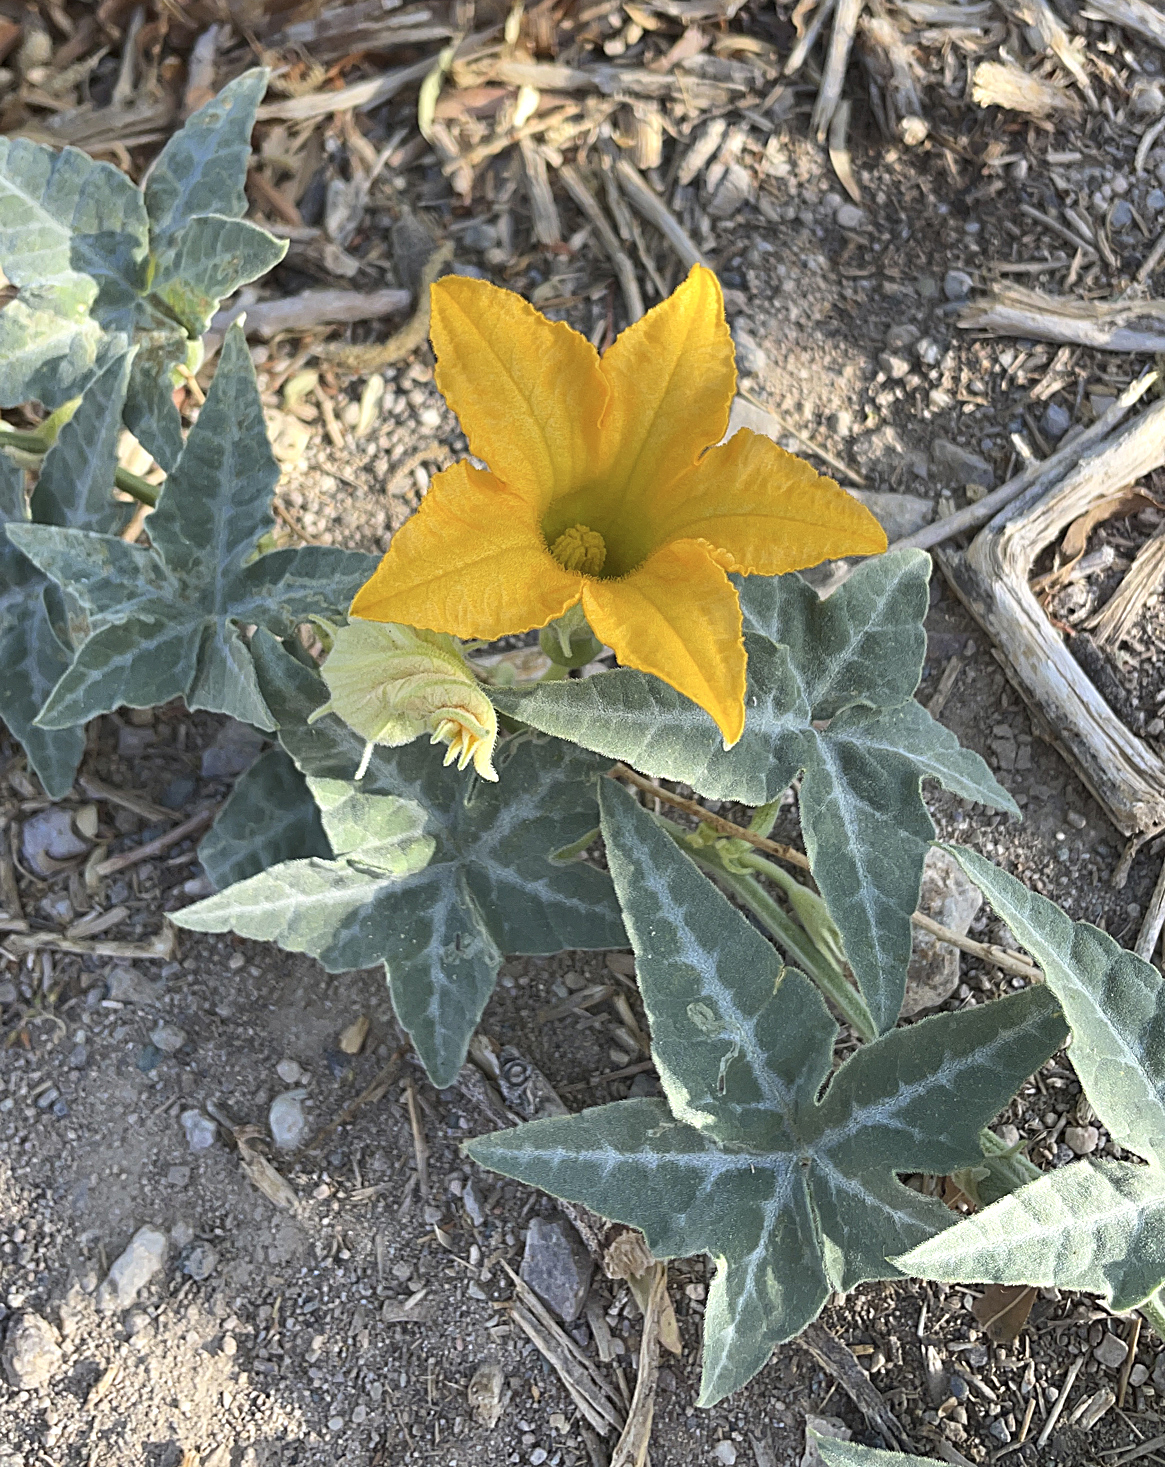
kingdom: Plantae
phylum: Tracheophyta
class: Magnoliopsida
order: Cucurbitales
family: Cucurbitaceae
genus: Cucurbita
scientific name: Cucurbita palmata
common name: Coyote-melon
